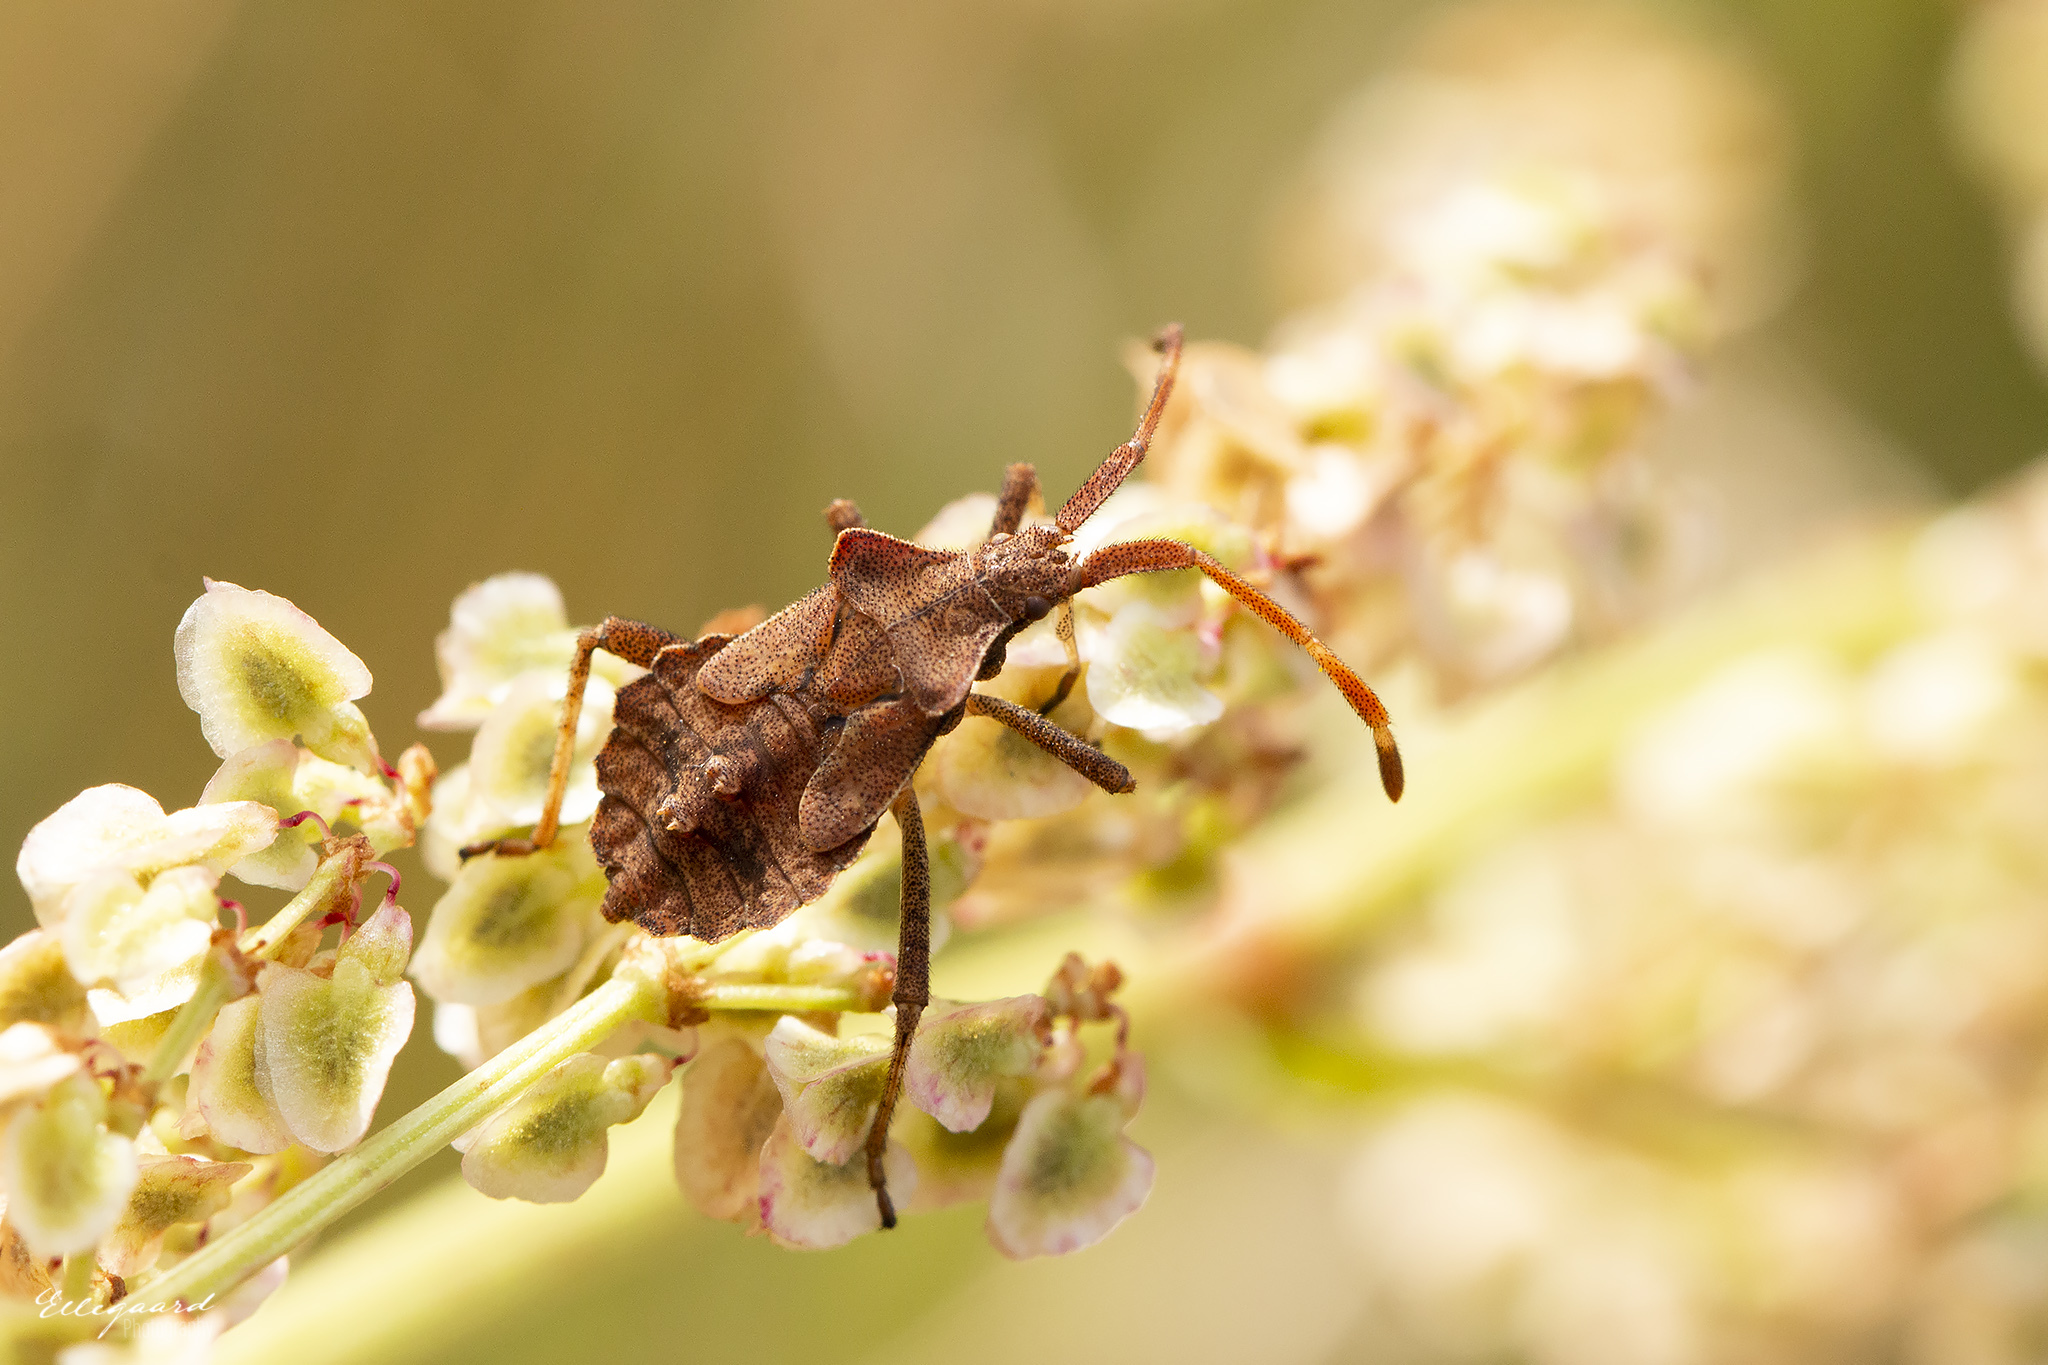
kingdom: Animalia
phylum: Arthropoda
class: Insecta
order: Hemiptera
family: Coreidae
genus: Coreus
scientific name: Coreus marginatus
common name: Dock bug
